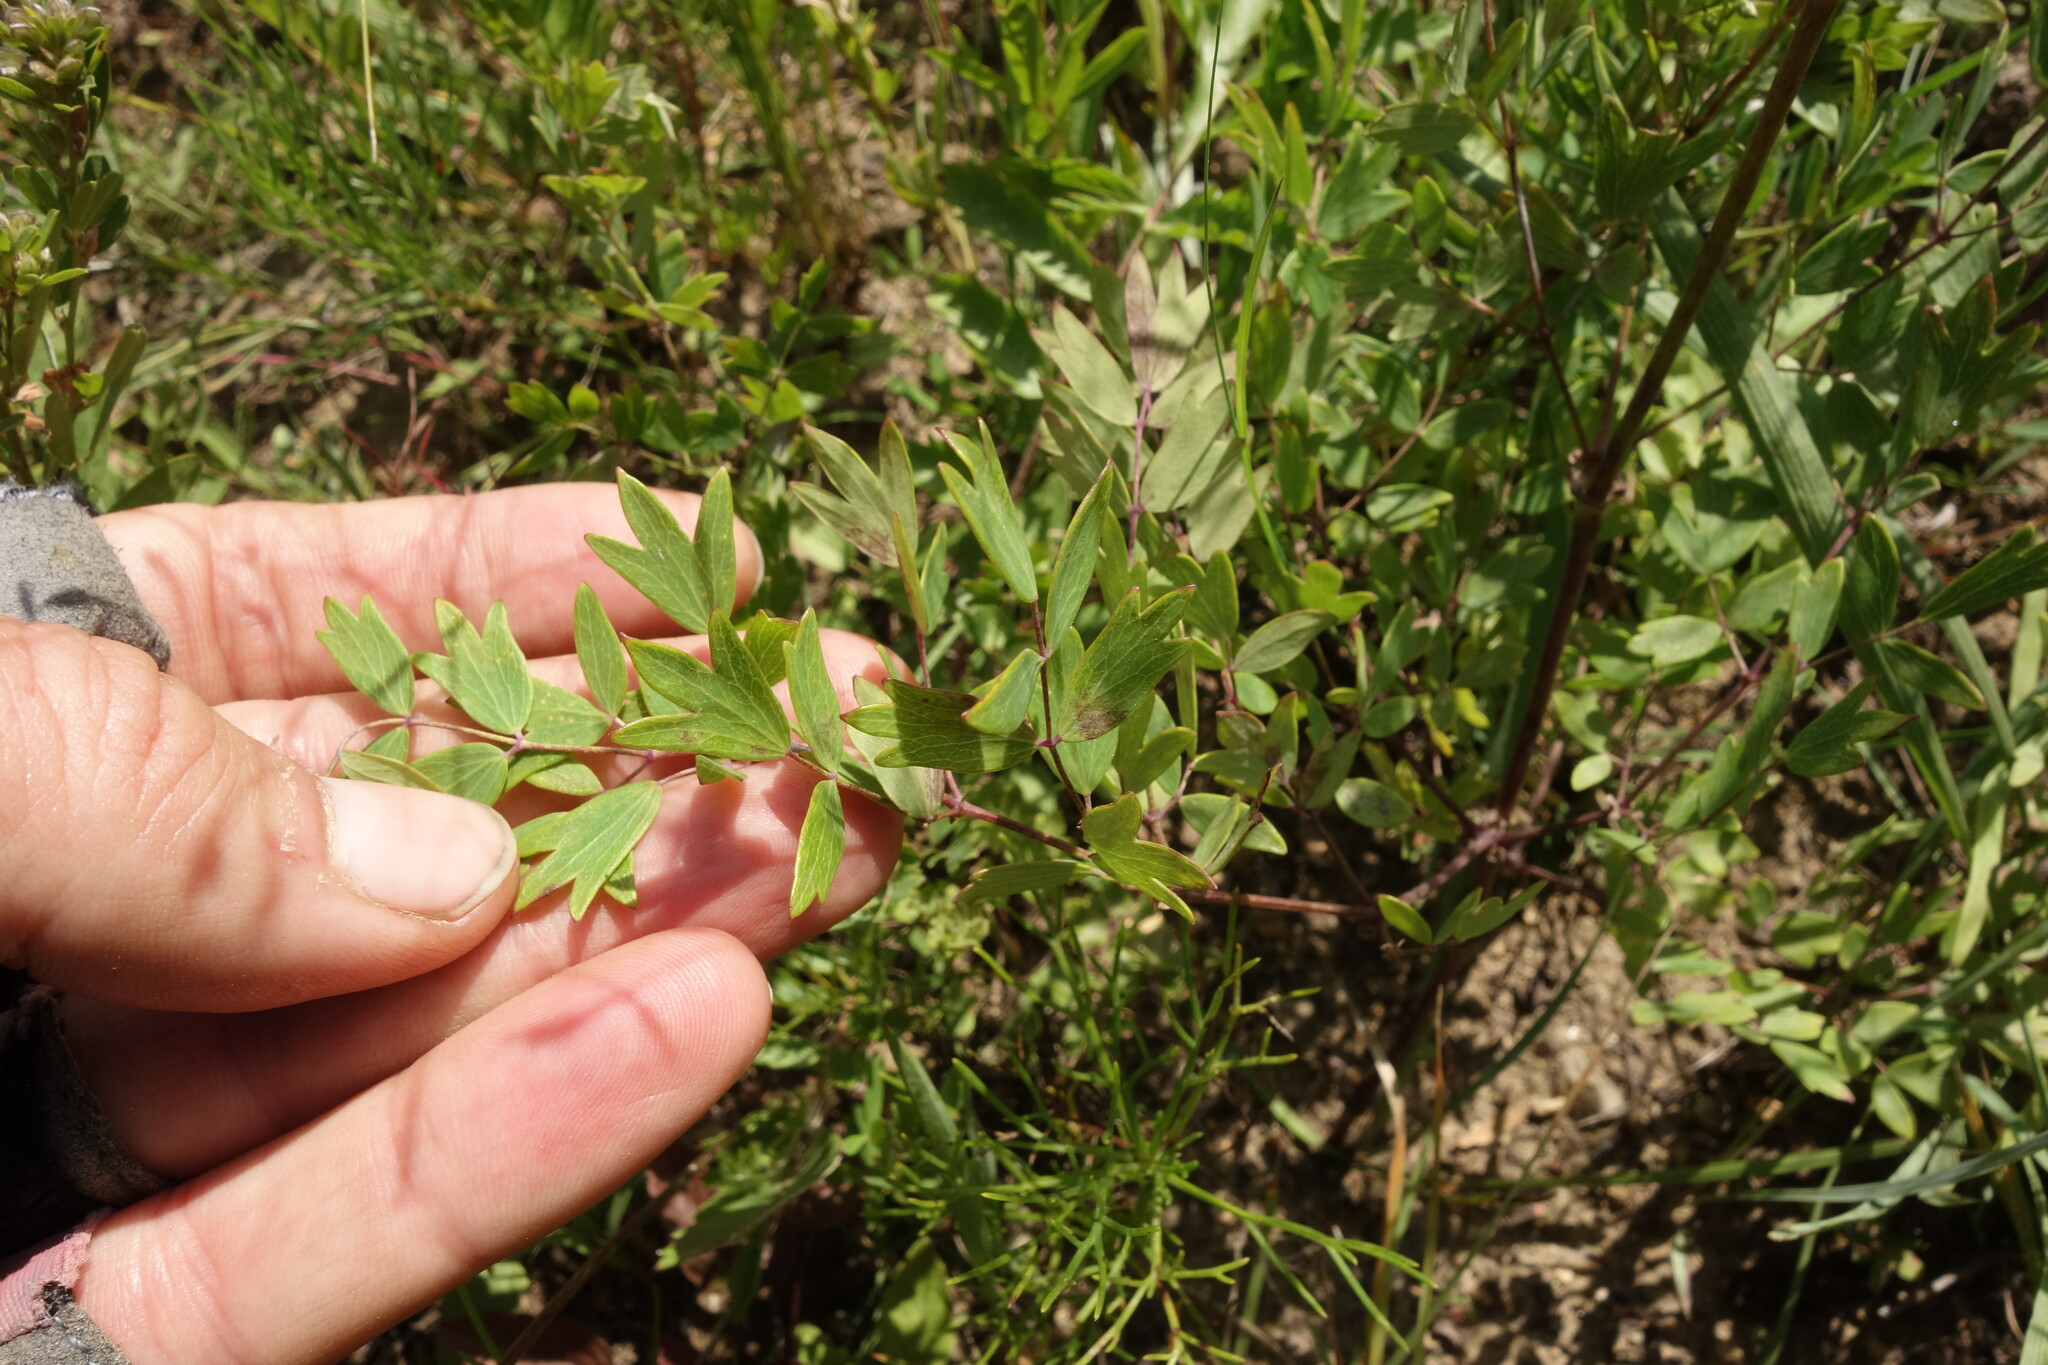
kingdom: Plantae
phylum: Tracheophyta
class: Magnoliopsida
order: Ranunculales
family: Ranunculaceae
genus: Thalictrum
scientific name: Thalictrum squarrosum
